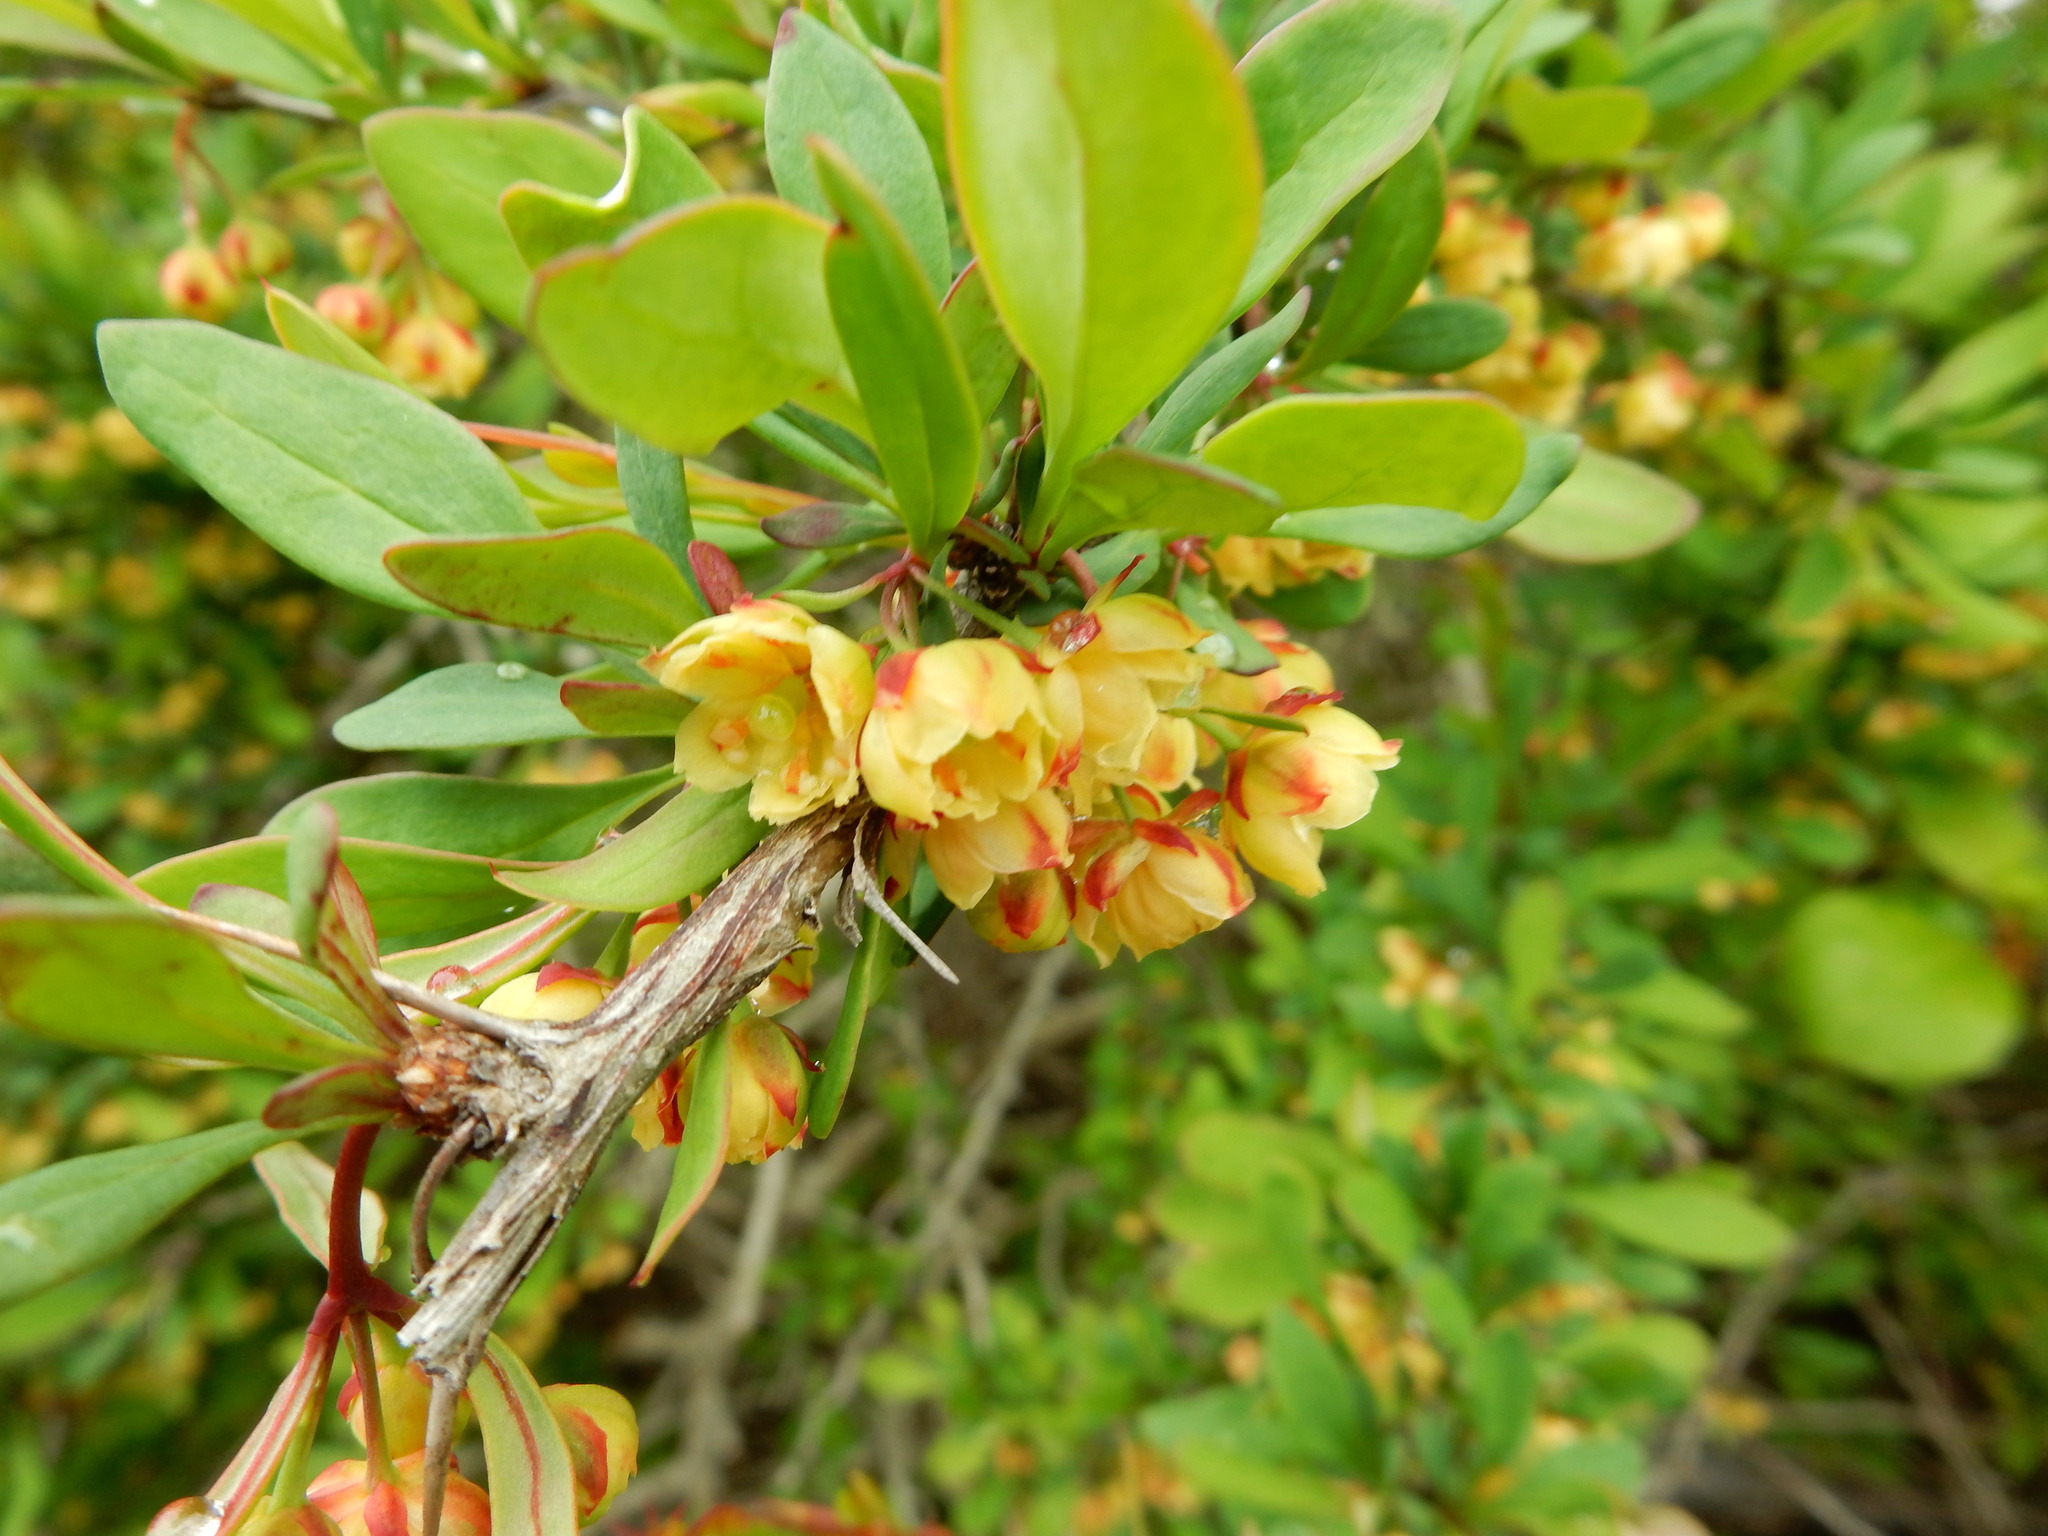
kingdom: Plantae
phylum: Tracheophyta
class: Magnoliopsida
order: Ranunculales
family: Berberidaceae
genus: Berberis
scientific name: Berberis thunbergii
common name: Japanese barberry
